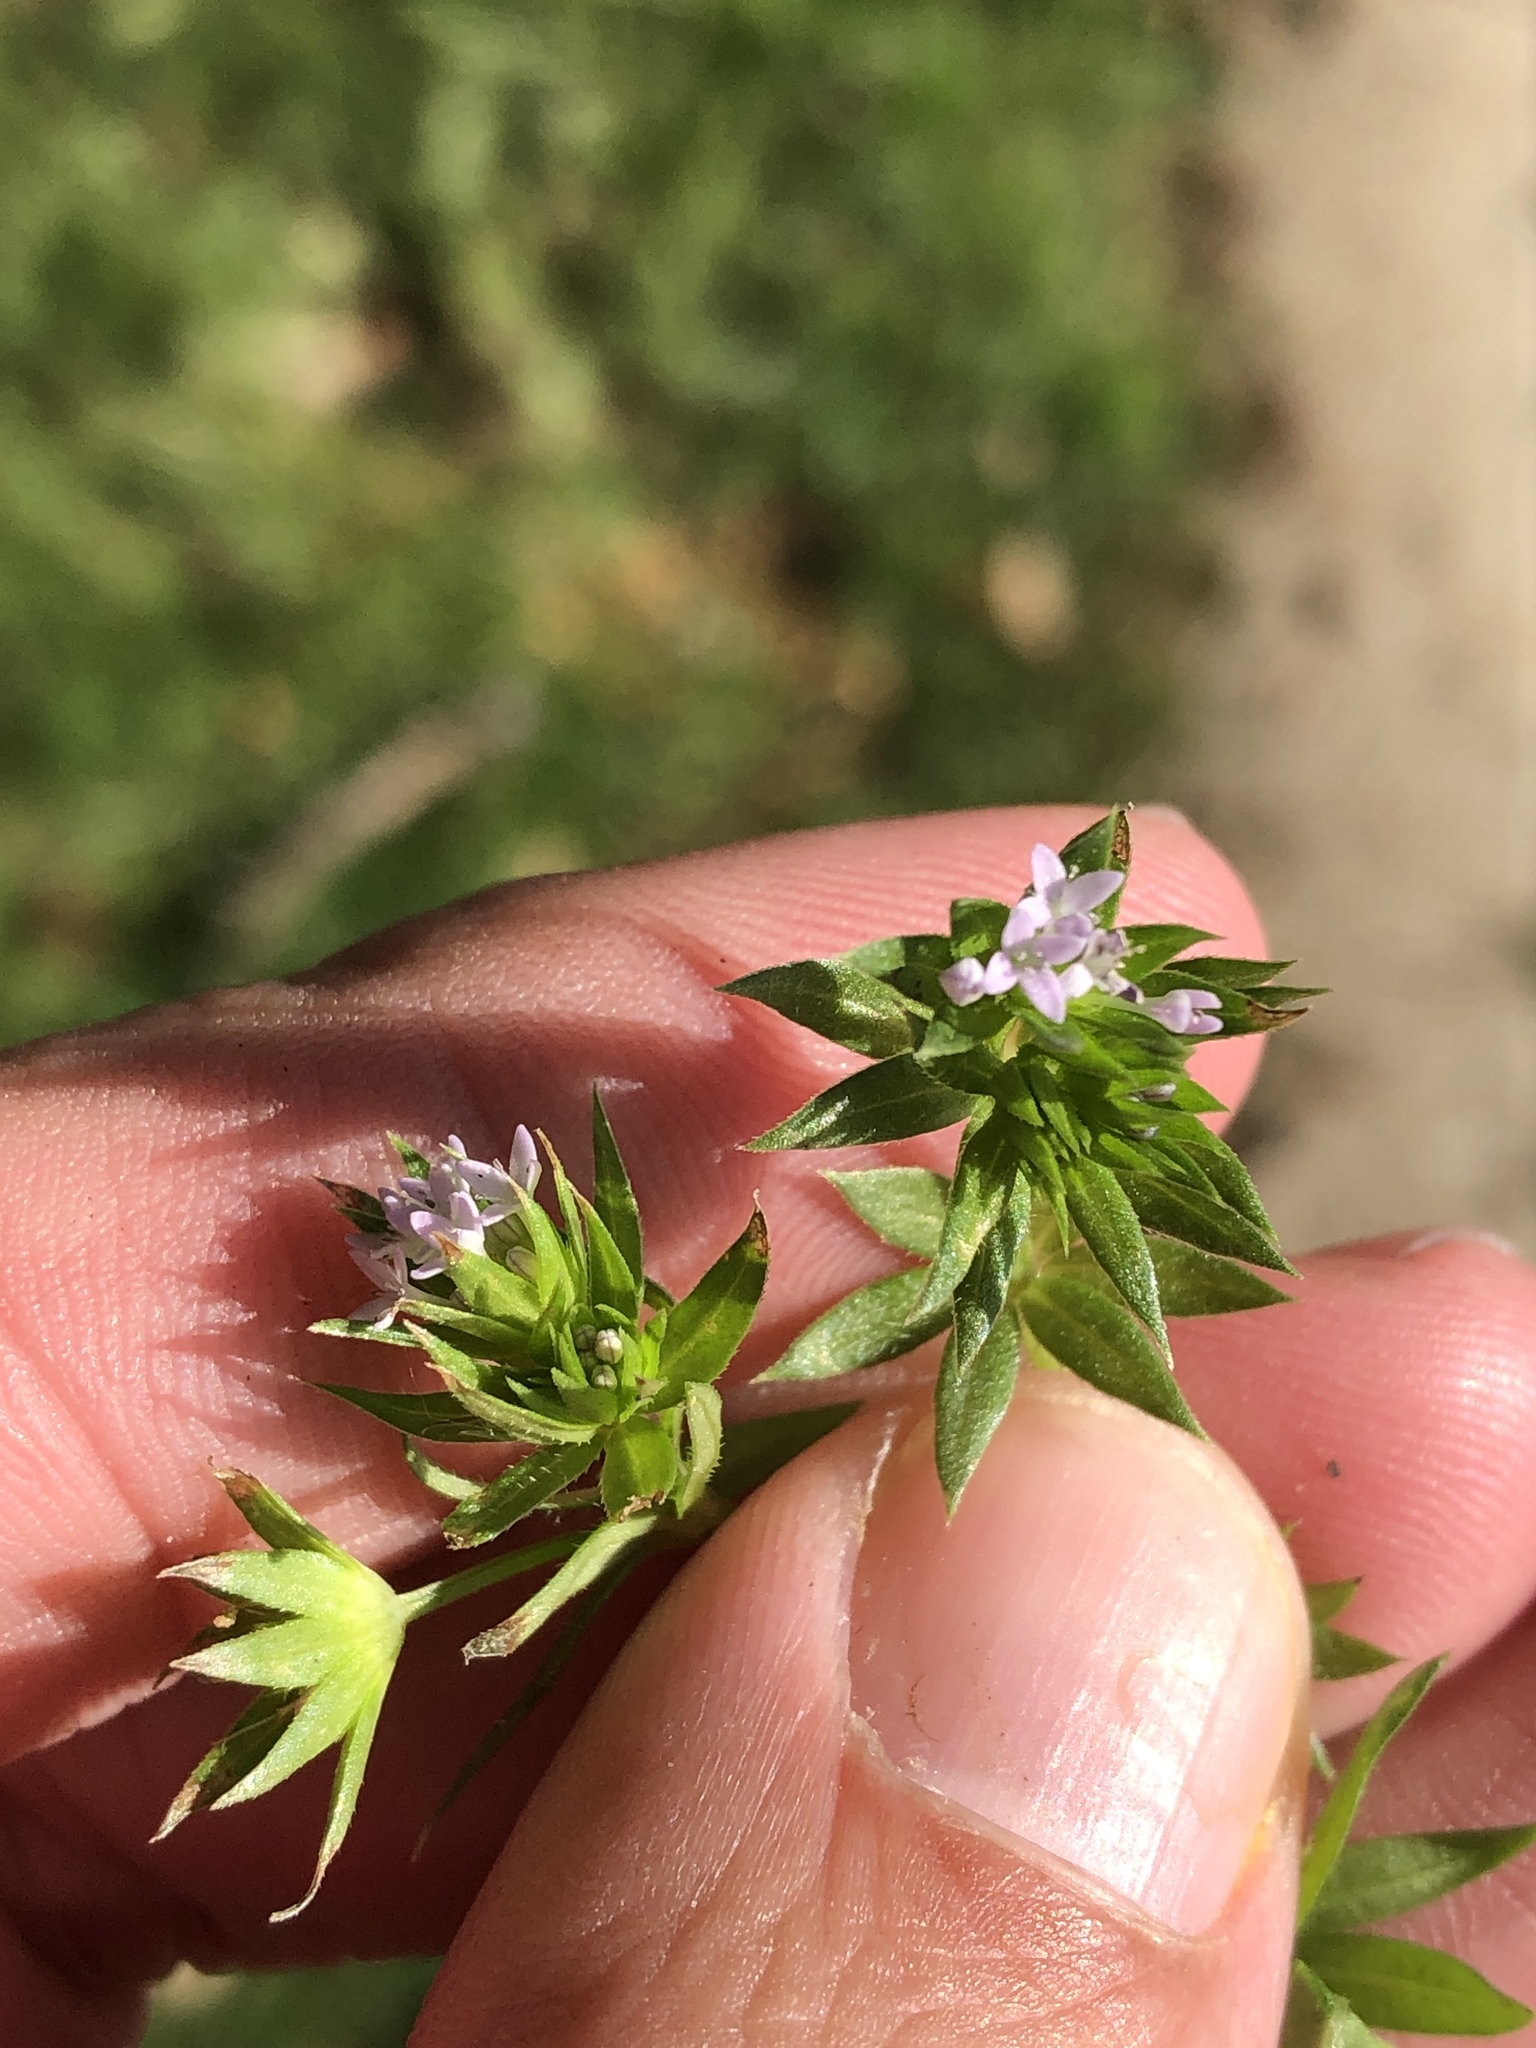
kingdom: Plantae
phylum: Tracheophyta
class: Magnoliopsida
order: Gentianales
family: Rubiaceae
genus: Sherardia
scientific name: Sherardia arvensis
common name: Field madder
